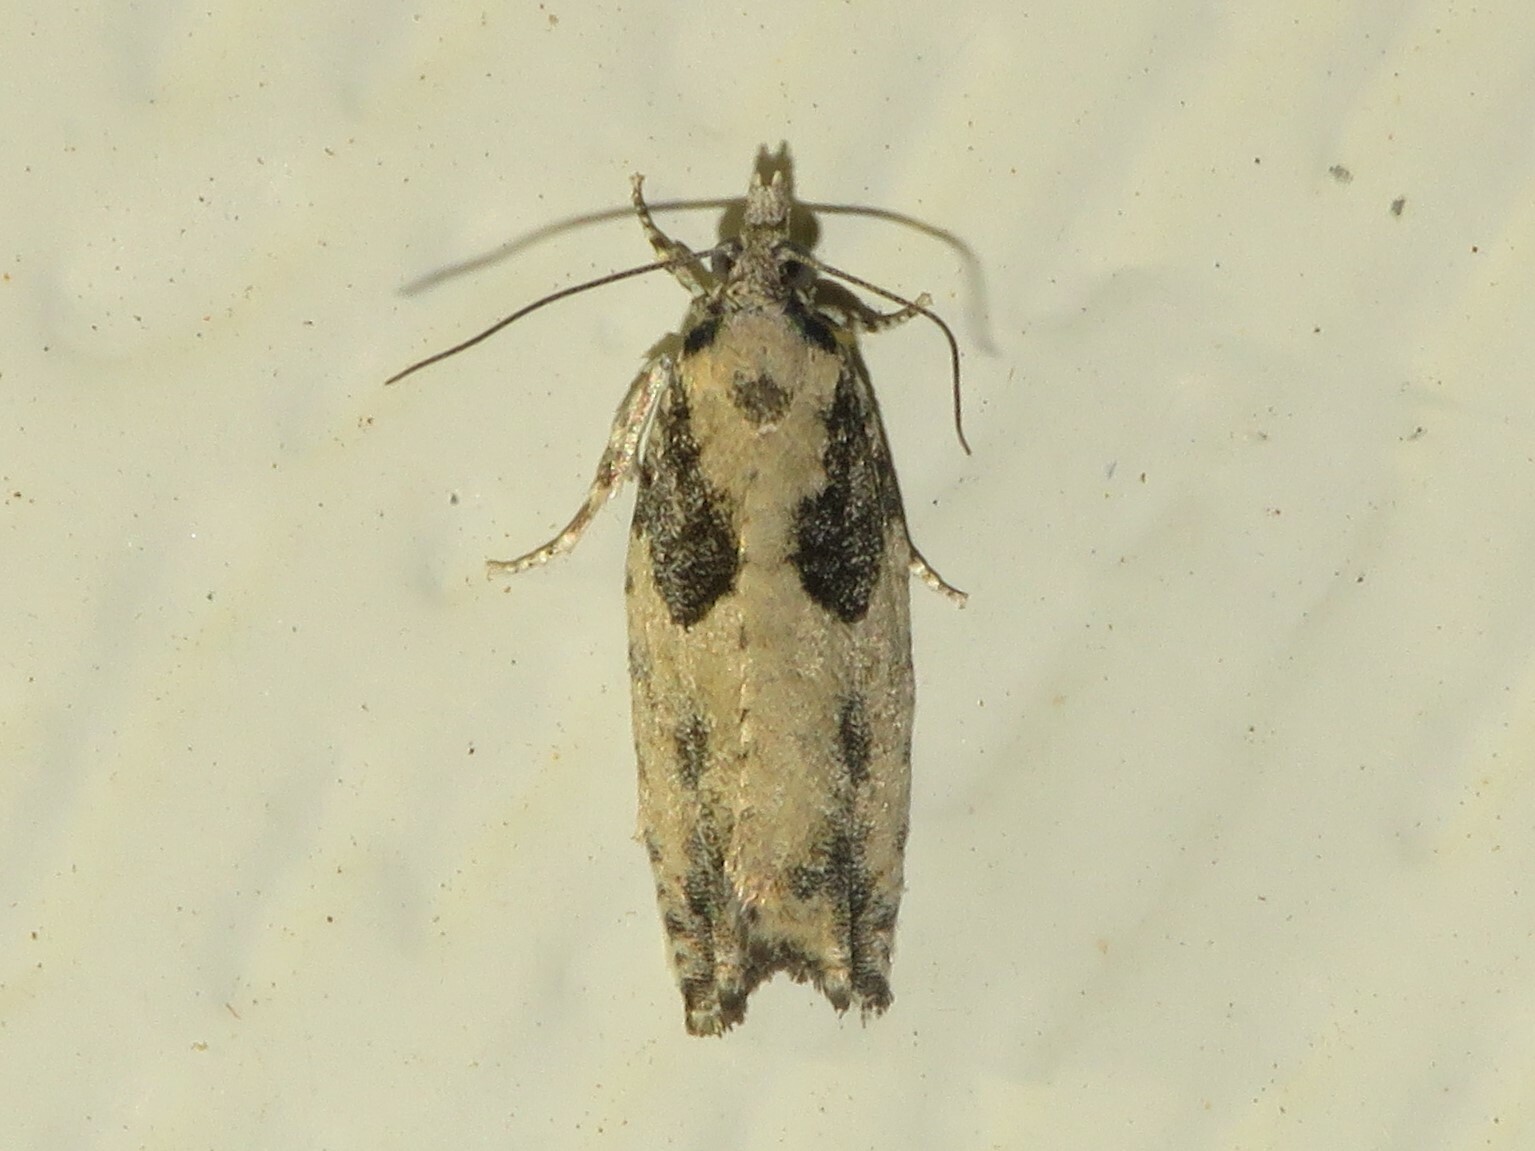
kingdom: Animalia
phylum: Arthropoda
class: Insecta
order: Lepidoptera
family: Tortricidae
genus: Epinotia
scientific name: Epinotia cinereana
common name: Grey aspen bell
